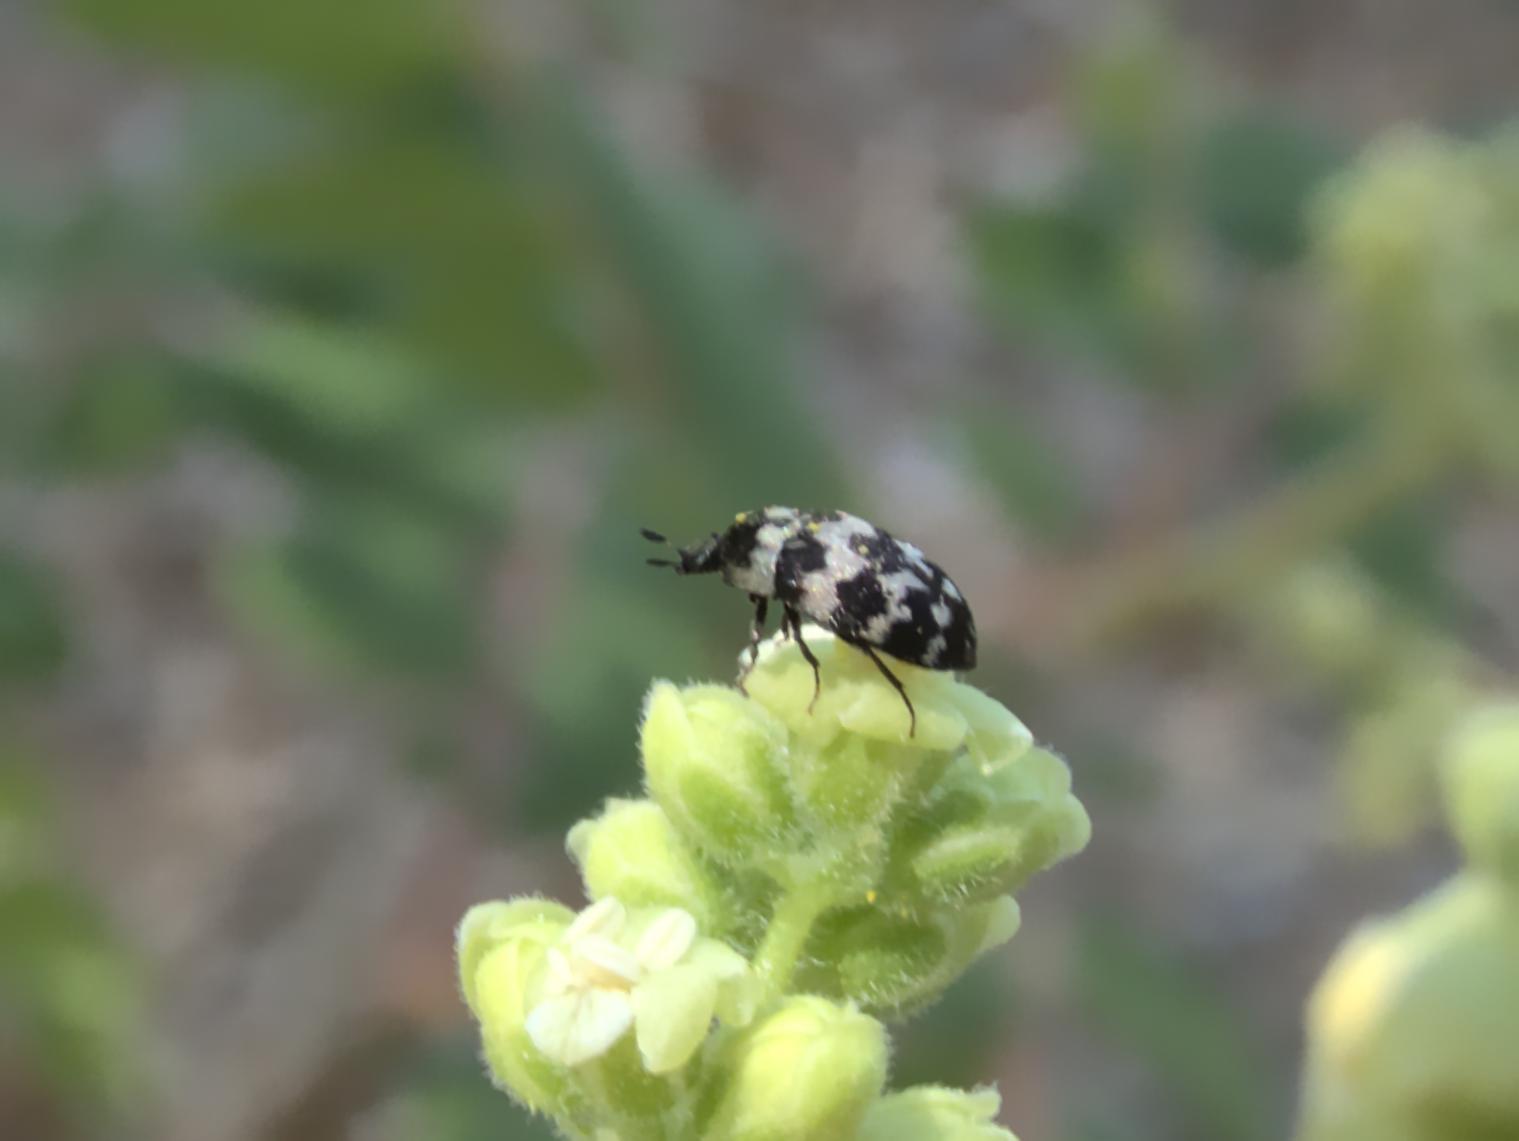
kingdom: Animalia
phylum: Arthropoda
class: Insecta
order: Coleoptera
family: Dermestidae
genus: Attagenus
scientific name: Attagenus trifasciatus
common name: Carpet beetle
